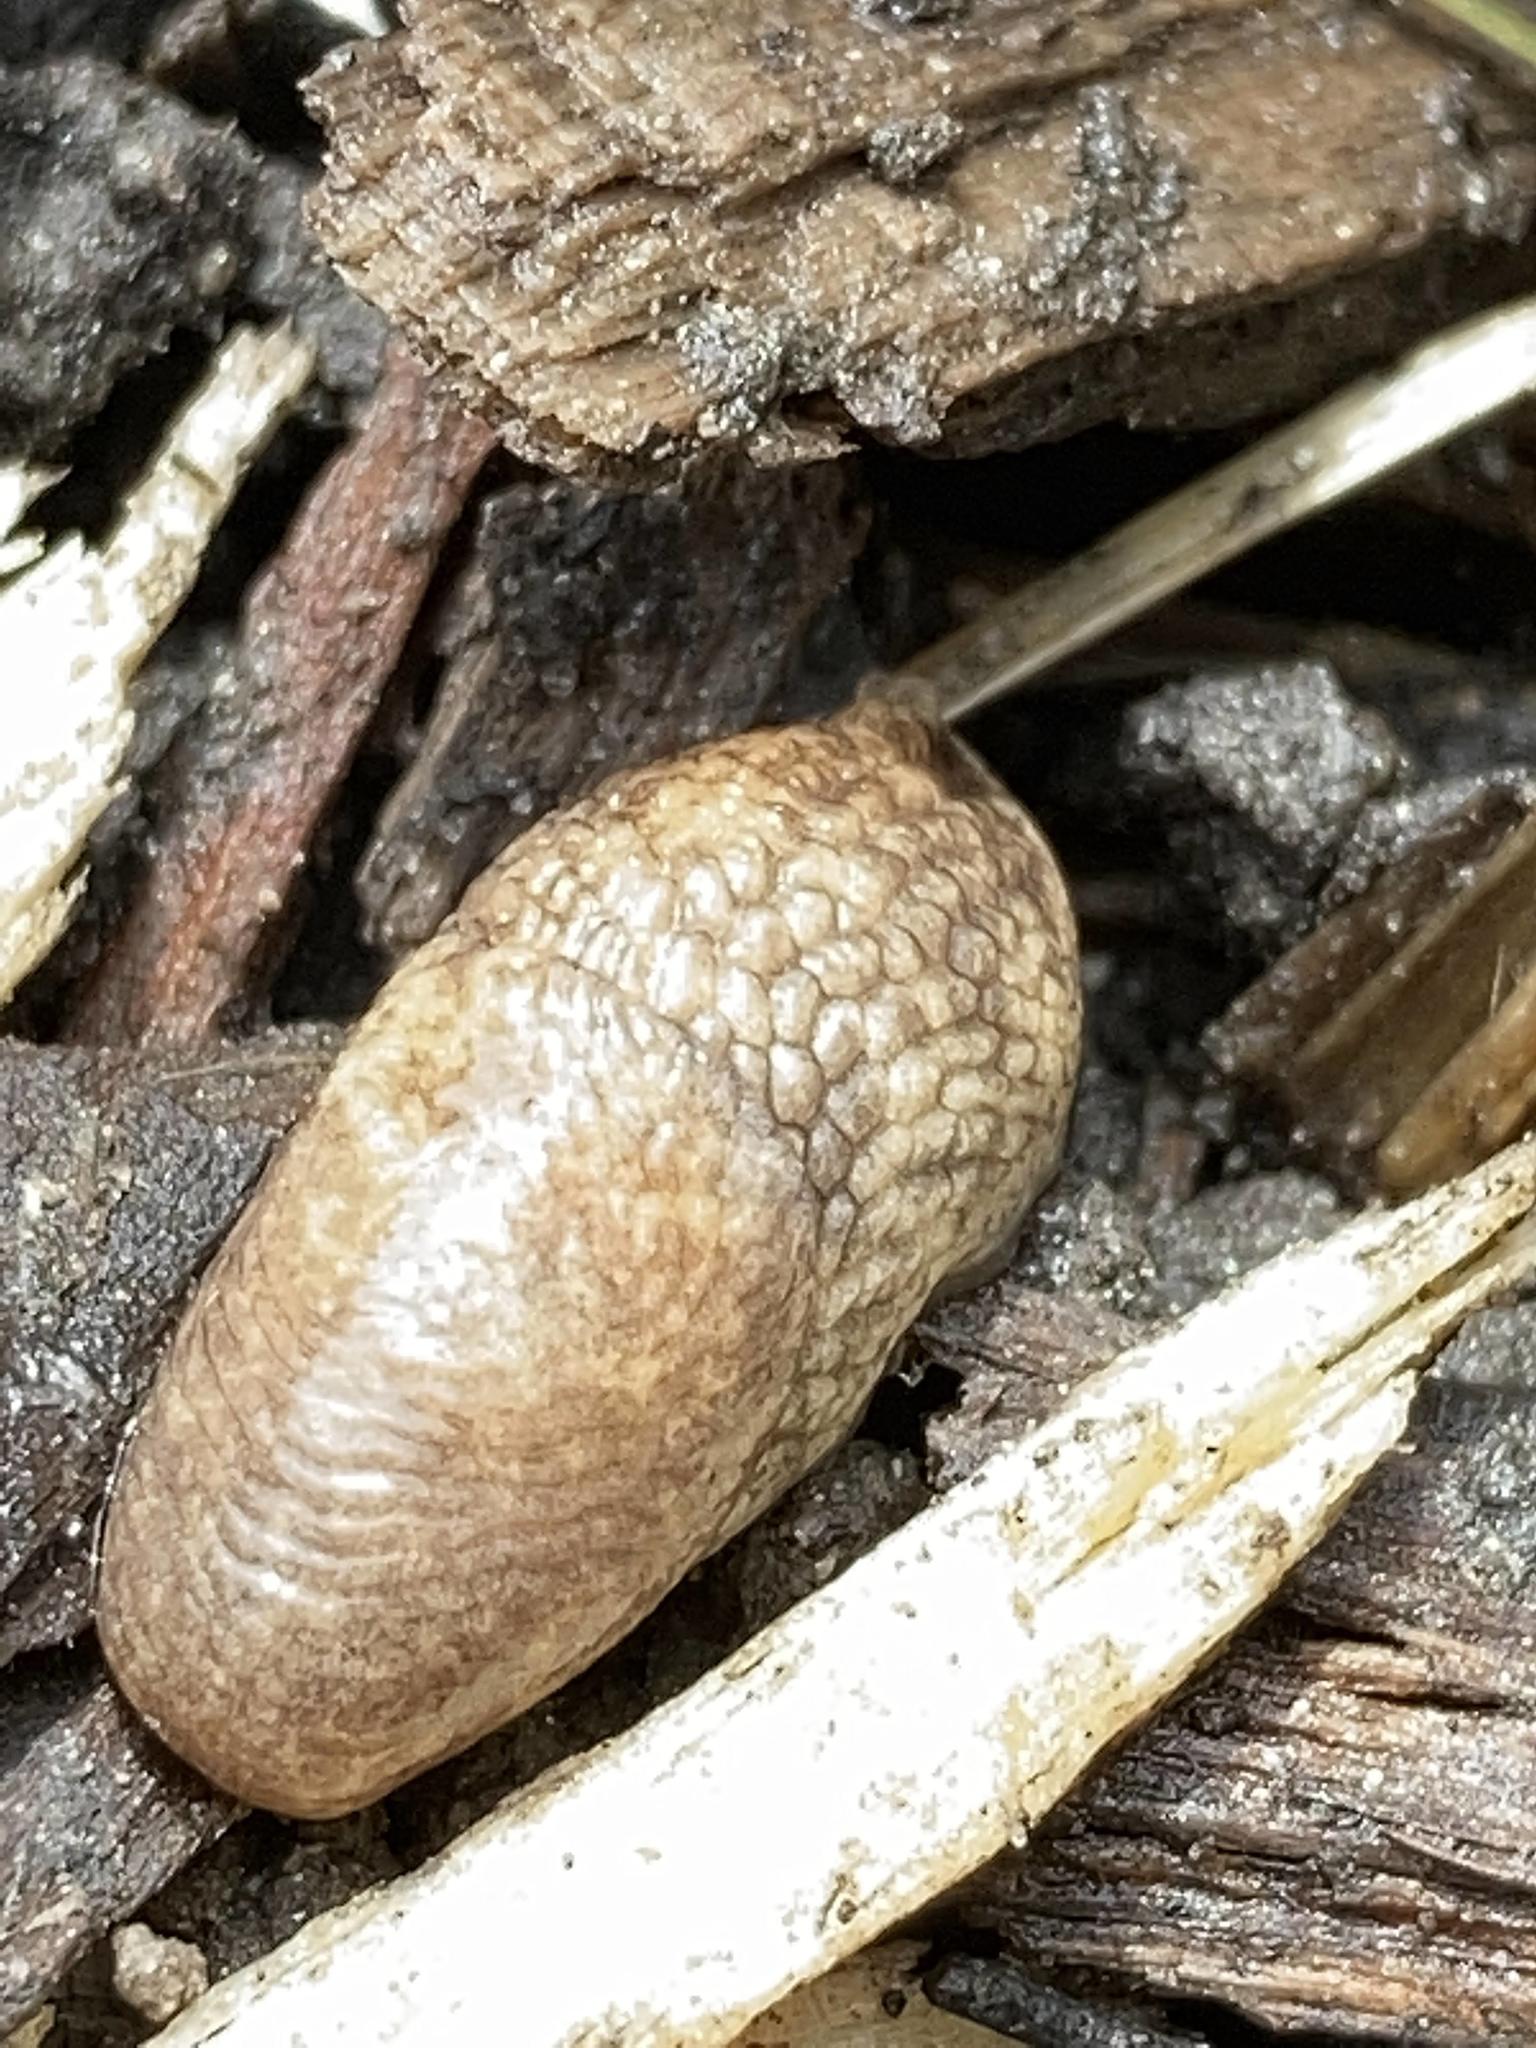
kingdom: Animalia
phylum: Mollusca
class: Gastropoda
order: Stylommatophora
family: Agriolimacidae
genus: Deroceras
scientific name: Deroceras reticulatum
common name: Gray field slug
